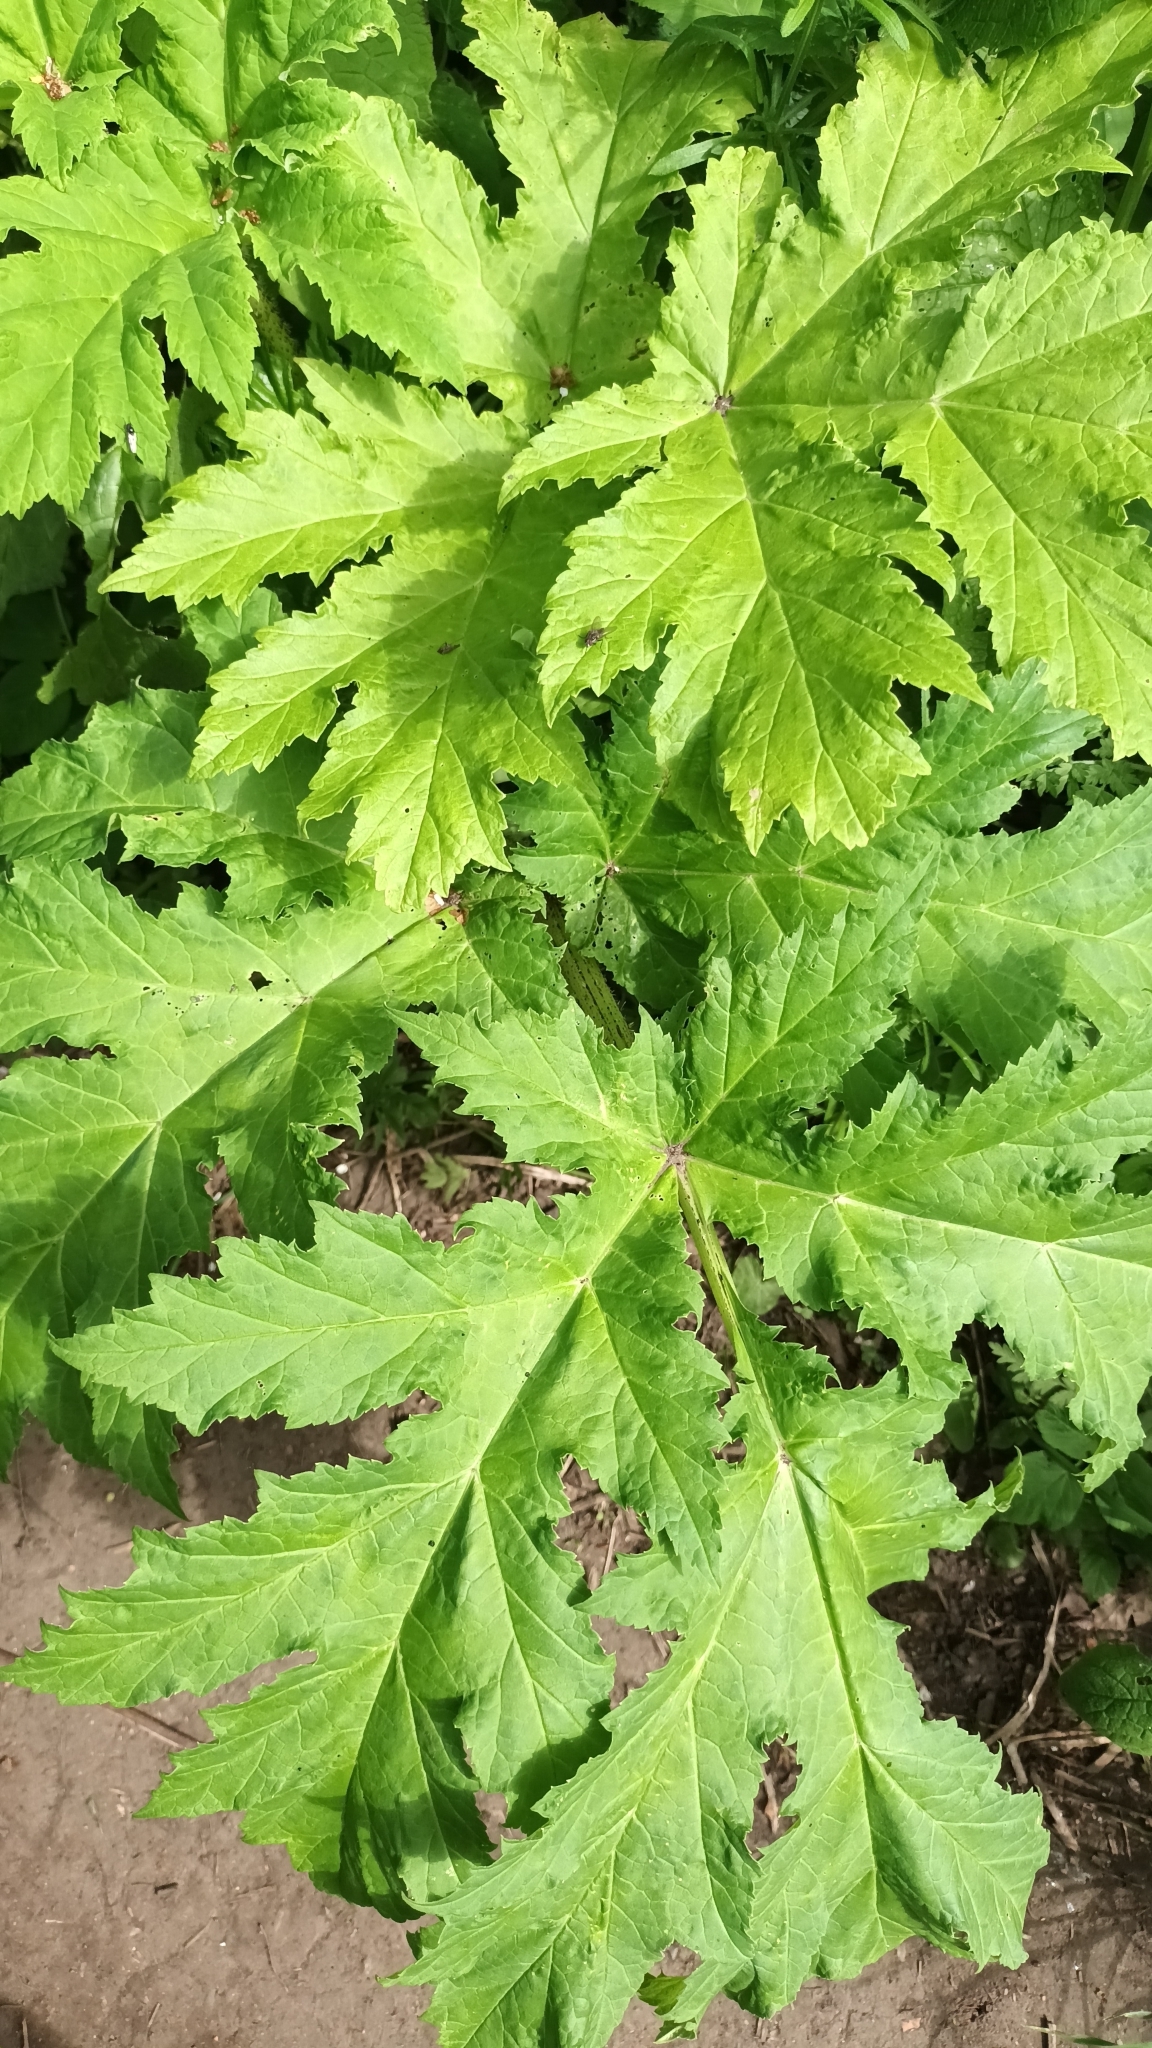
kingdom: Plantae
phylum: Tracheophyta
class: Magnoliopsida
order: Apiales
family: Apiaceae
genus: Heracleum
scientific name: Heracleum mantegazzianum
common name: Giant hogweed
